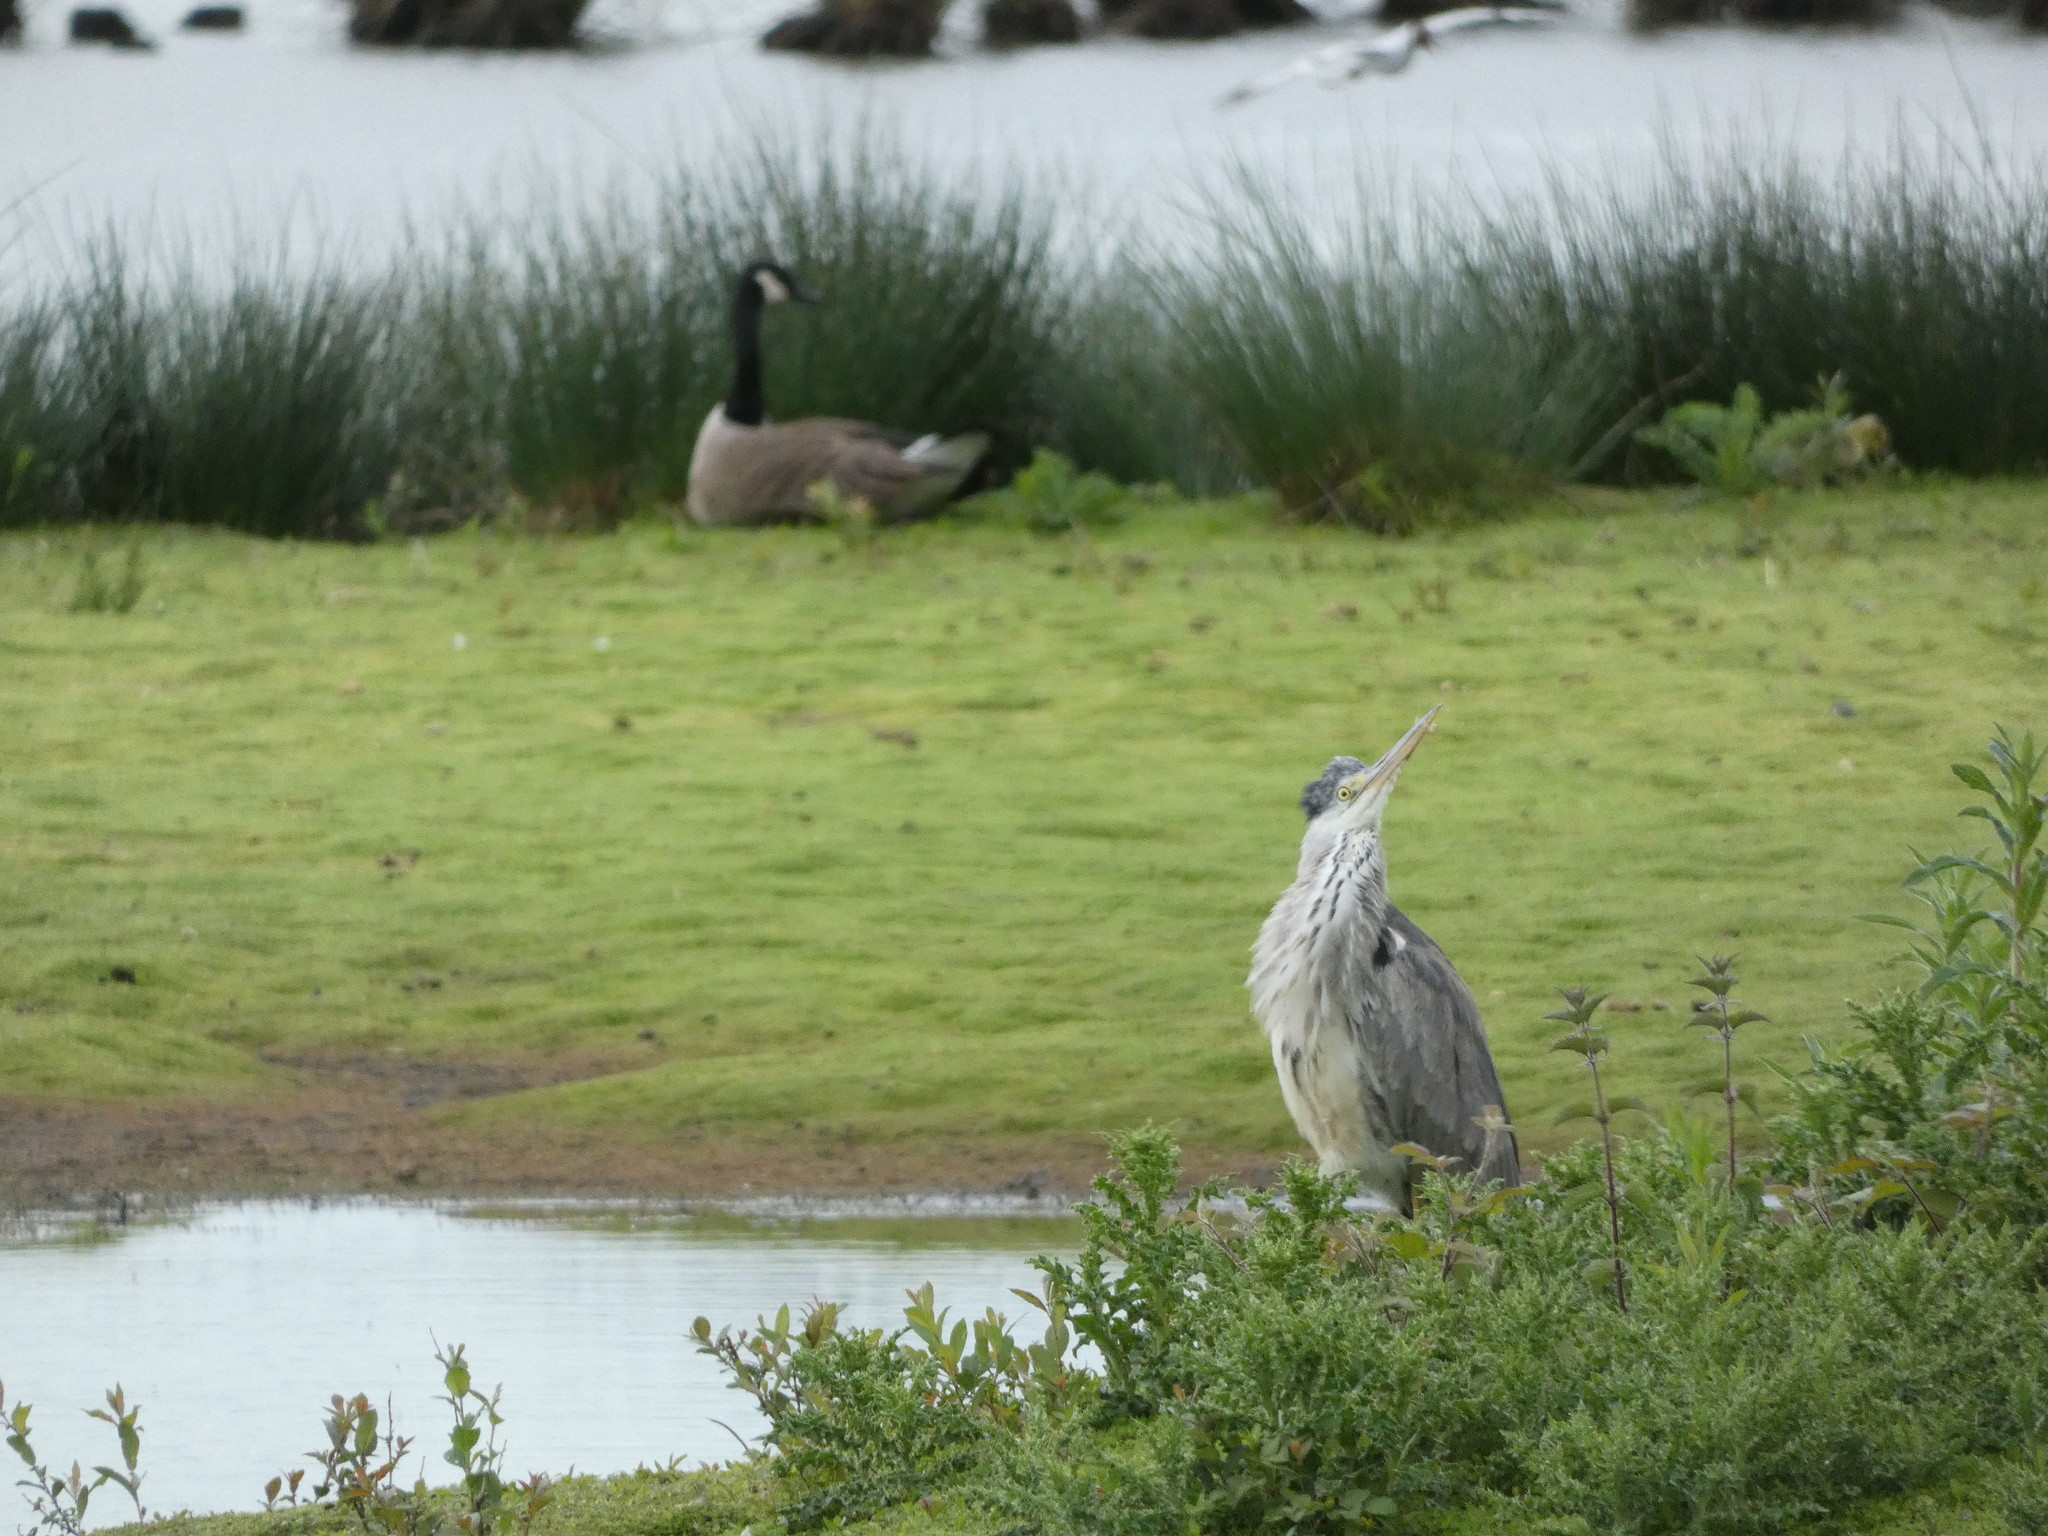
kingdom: Animalia
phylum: Chordata
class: Aves
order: Pelecaniformes
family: Ardeidae
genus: Ardea
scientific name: Ardea cinerea
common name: Grey heron
